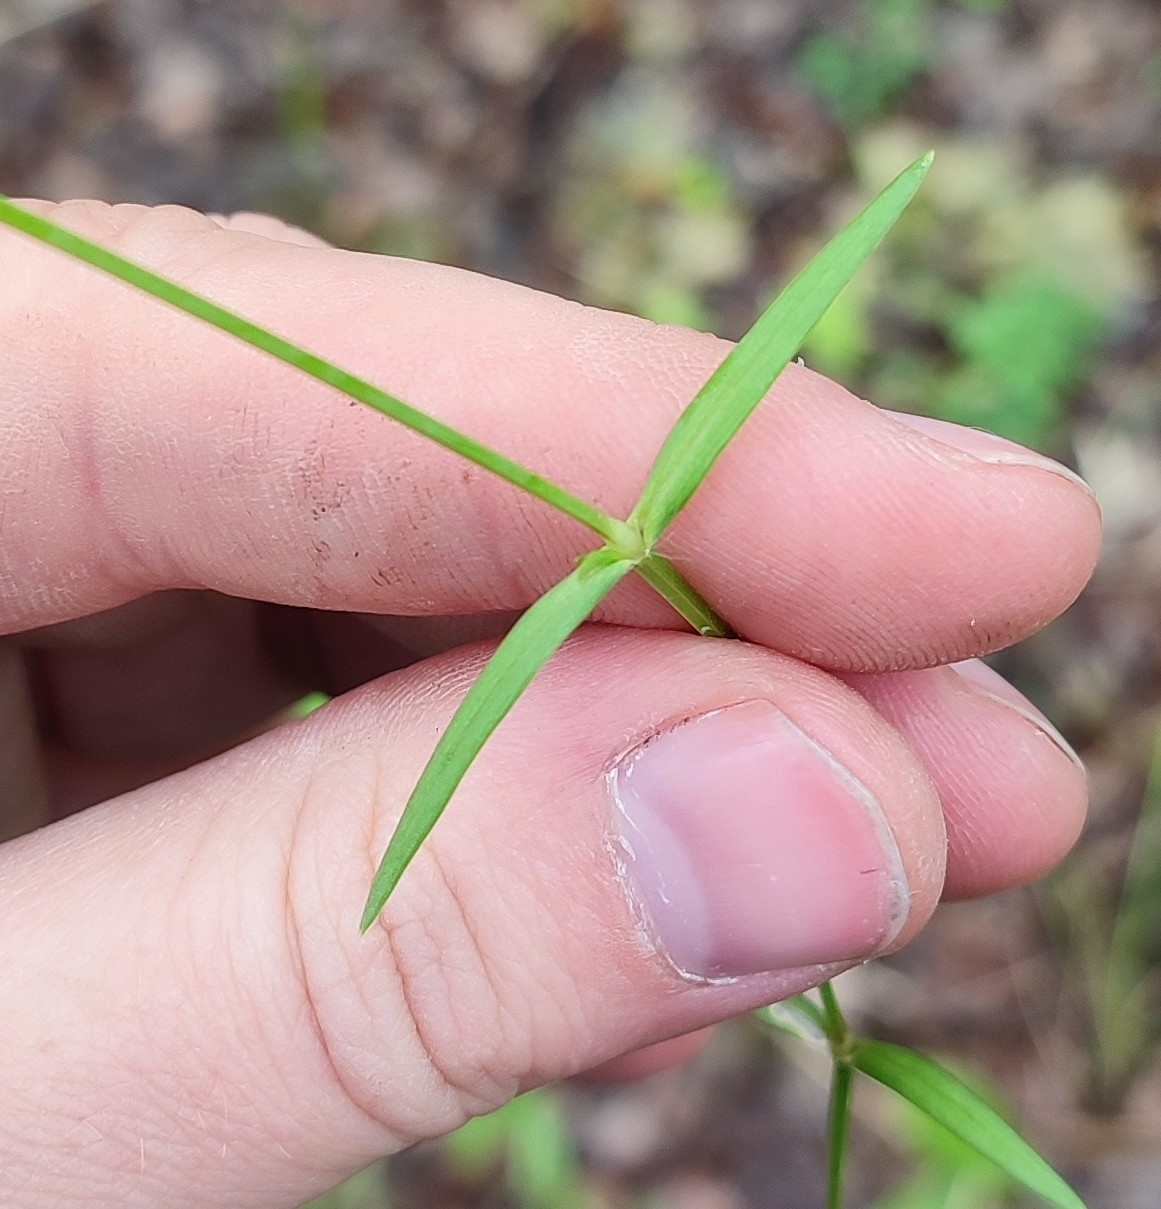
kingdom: Plantae
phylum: Tracheophyta
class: Magnoliopsida
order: Caryophyllales
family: Caryophyllaceae
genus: Stellaria
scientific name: Stellaria graminea
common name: Grass-like starwort
